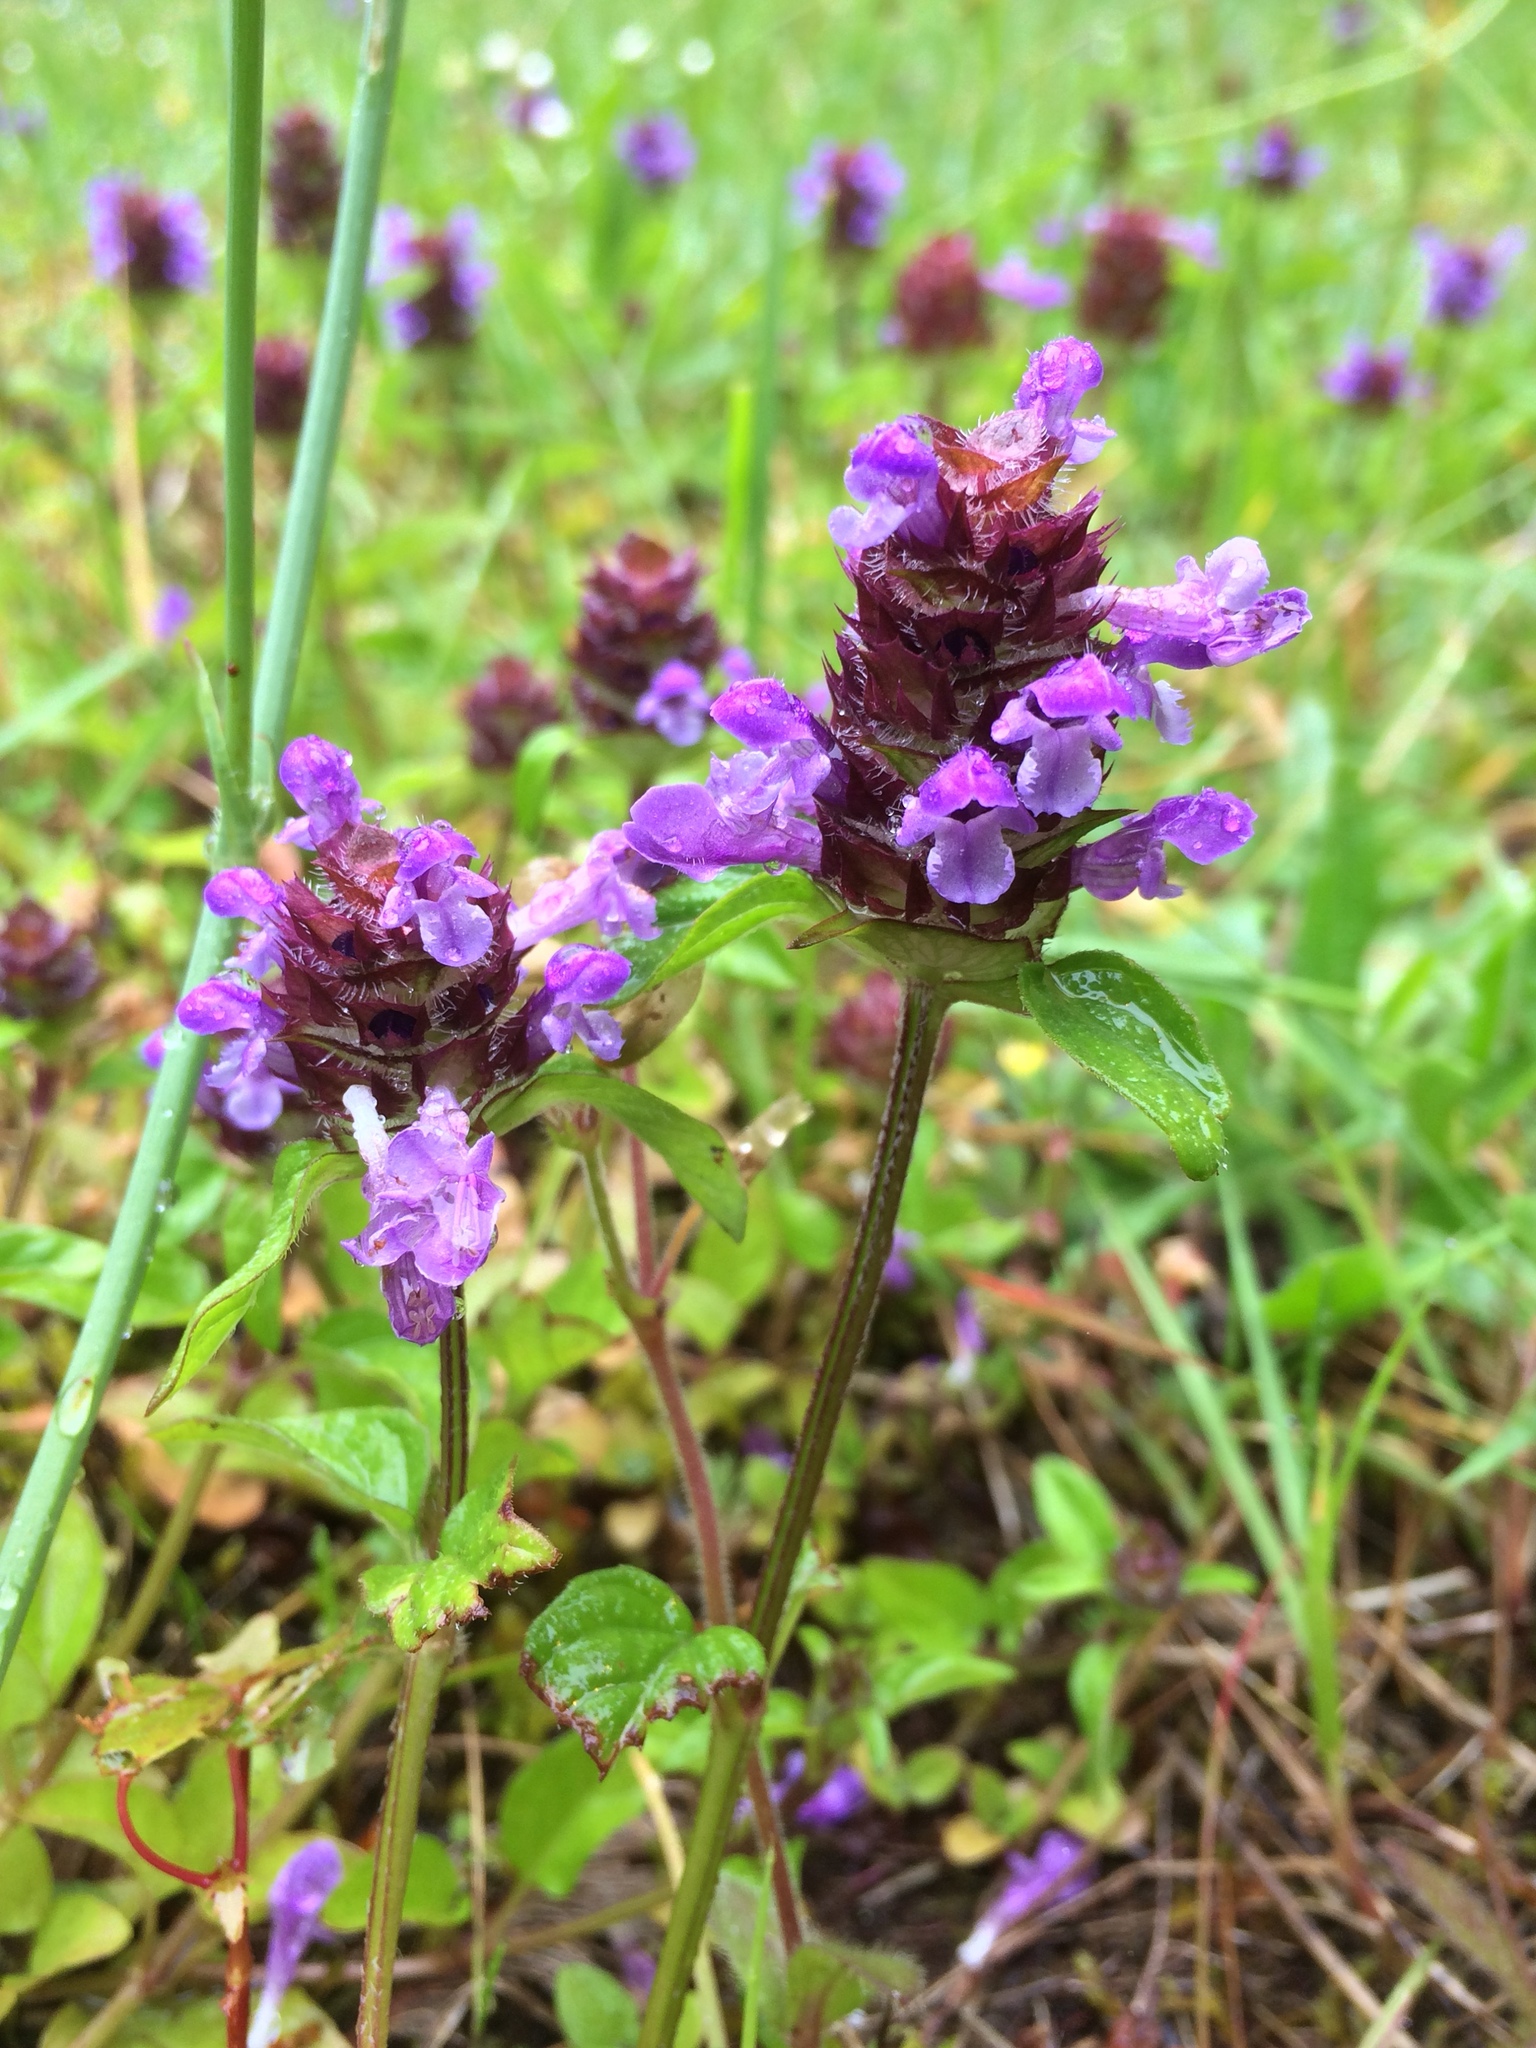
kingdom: Plantae
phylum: Tracheophyta
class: Magnoliopsida
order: Lamiales
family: Lamiaceae
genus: Prunella
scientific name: Prunella vulgaris
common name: Heal-all
